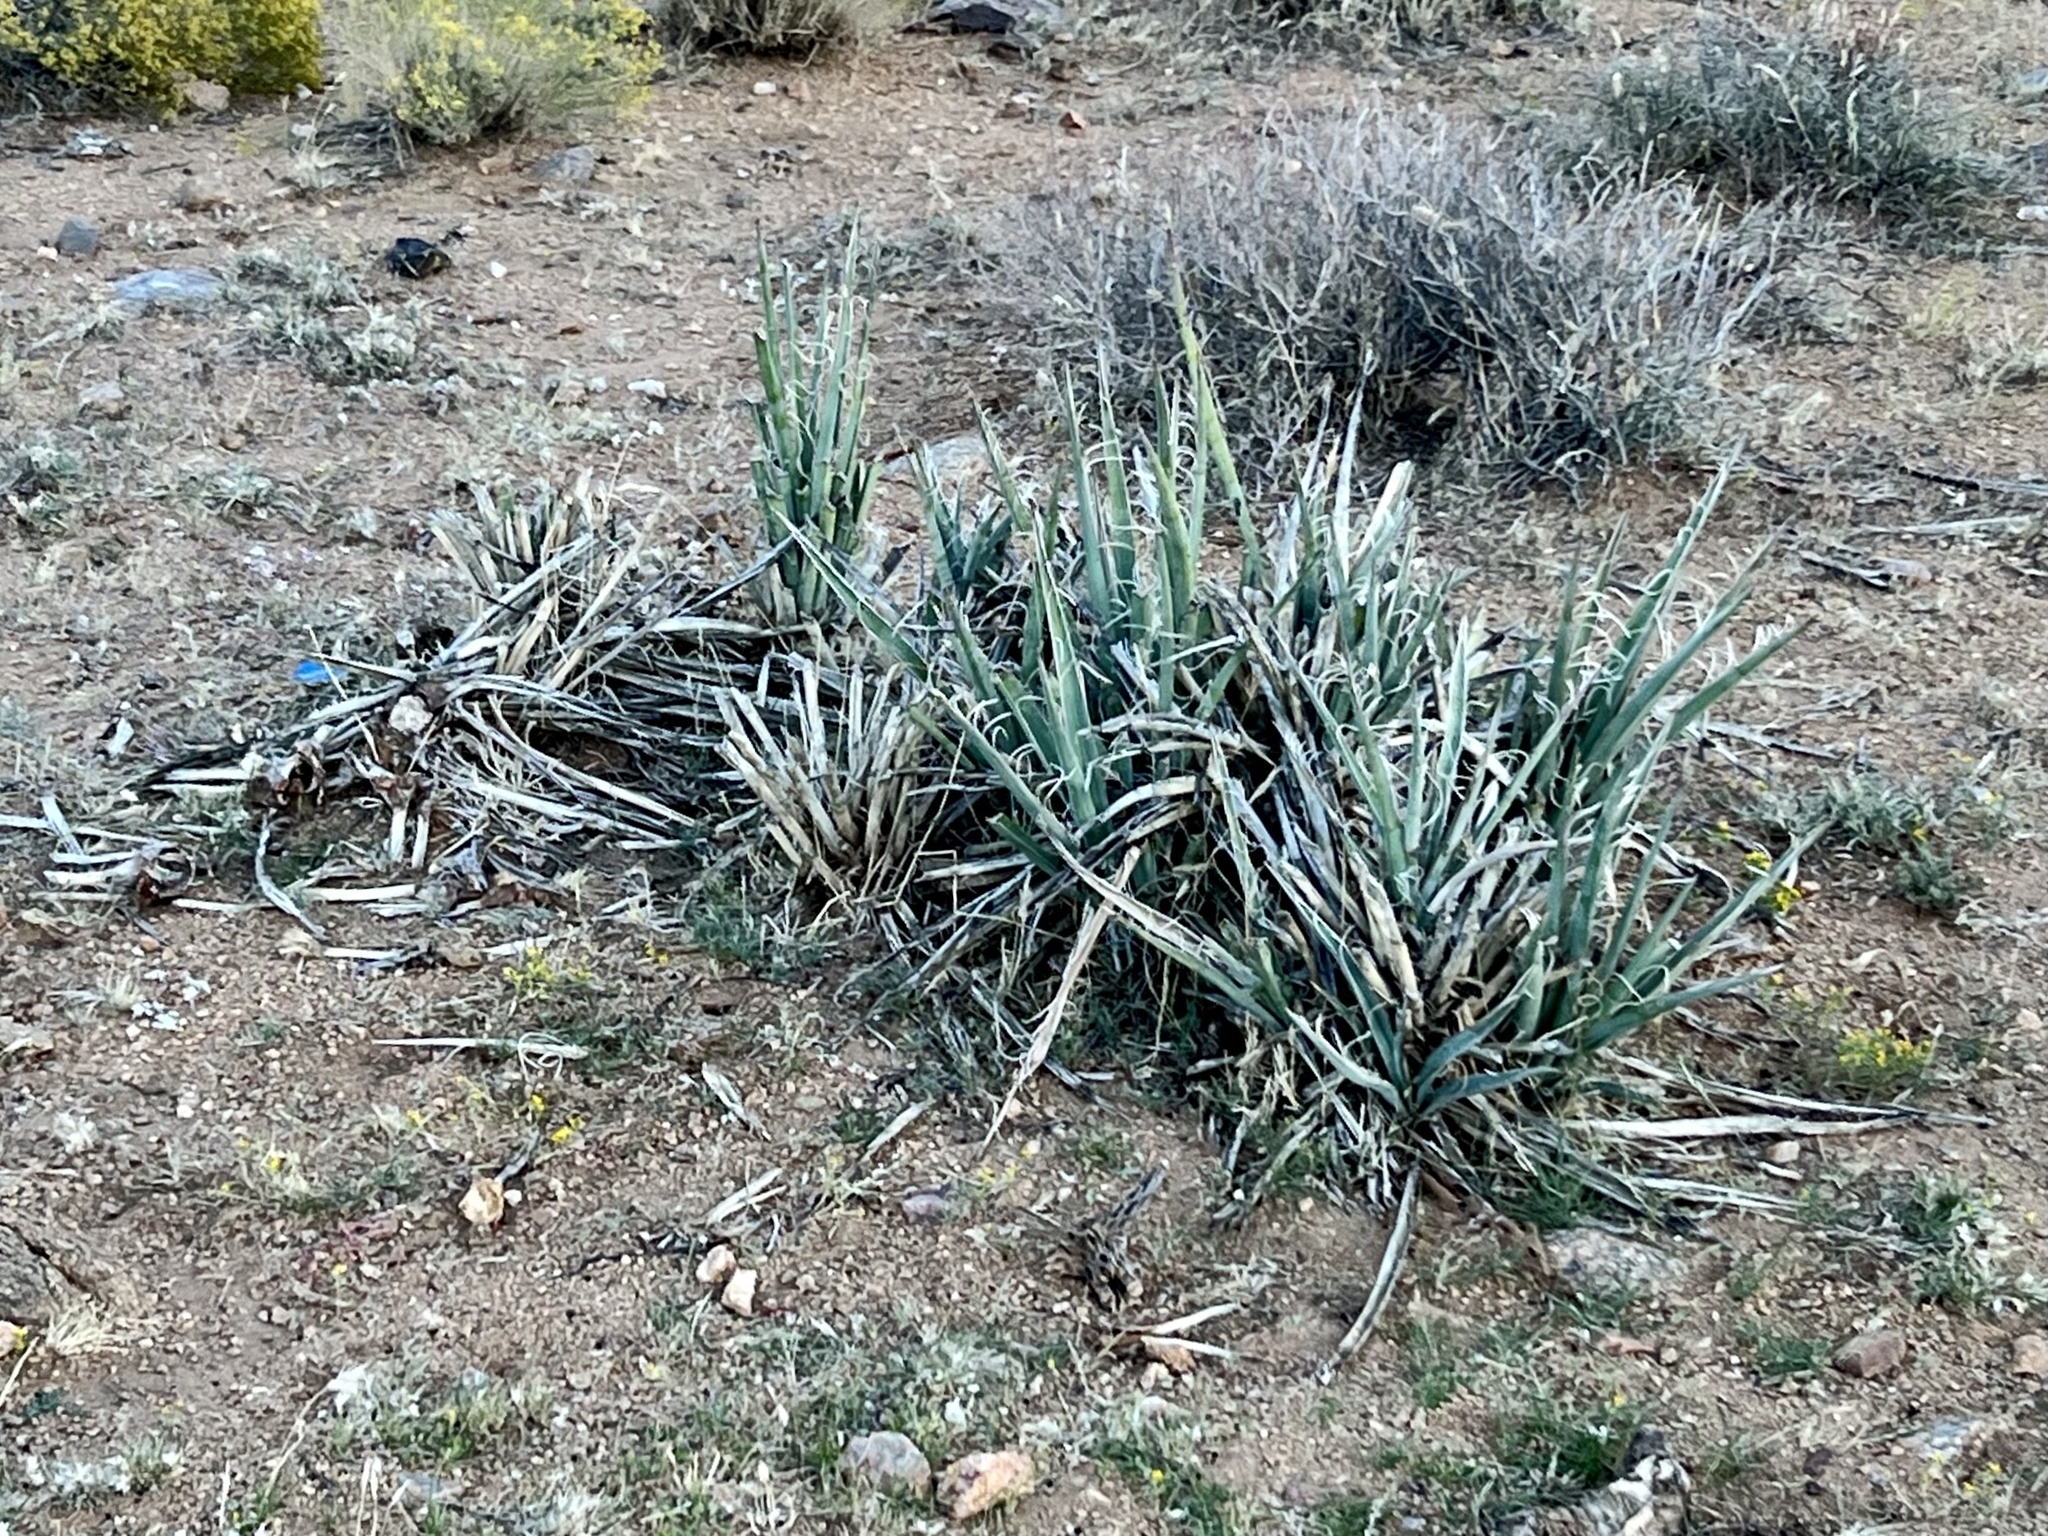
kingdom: Plantae
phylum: Tracheophyta
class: Liliopsida
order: Asparagales
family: Asparagaceae
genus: Yucca
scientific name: Yucca baccata
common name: Banana yucca
